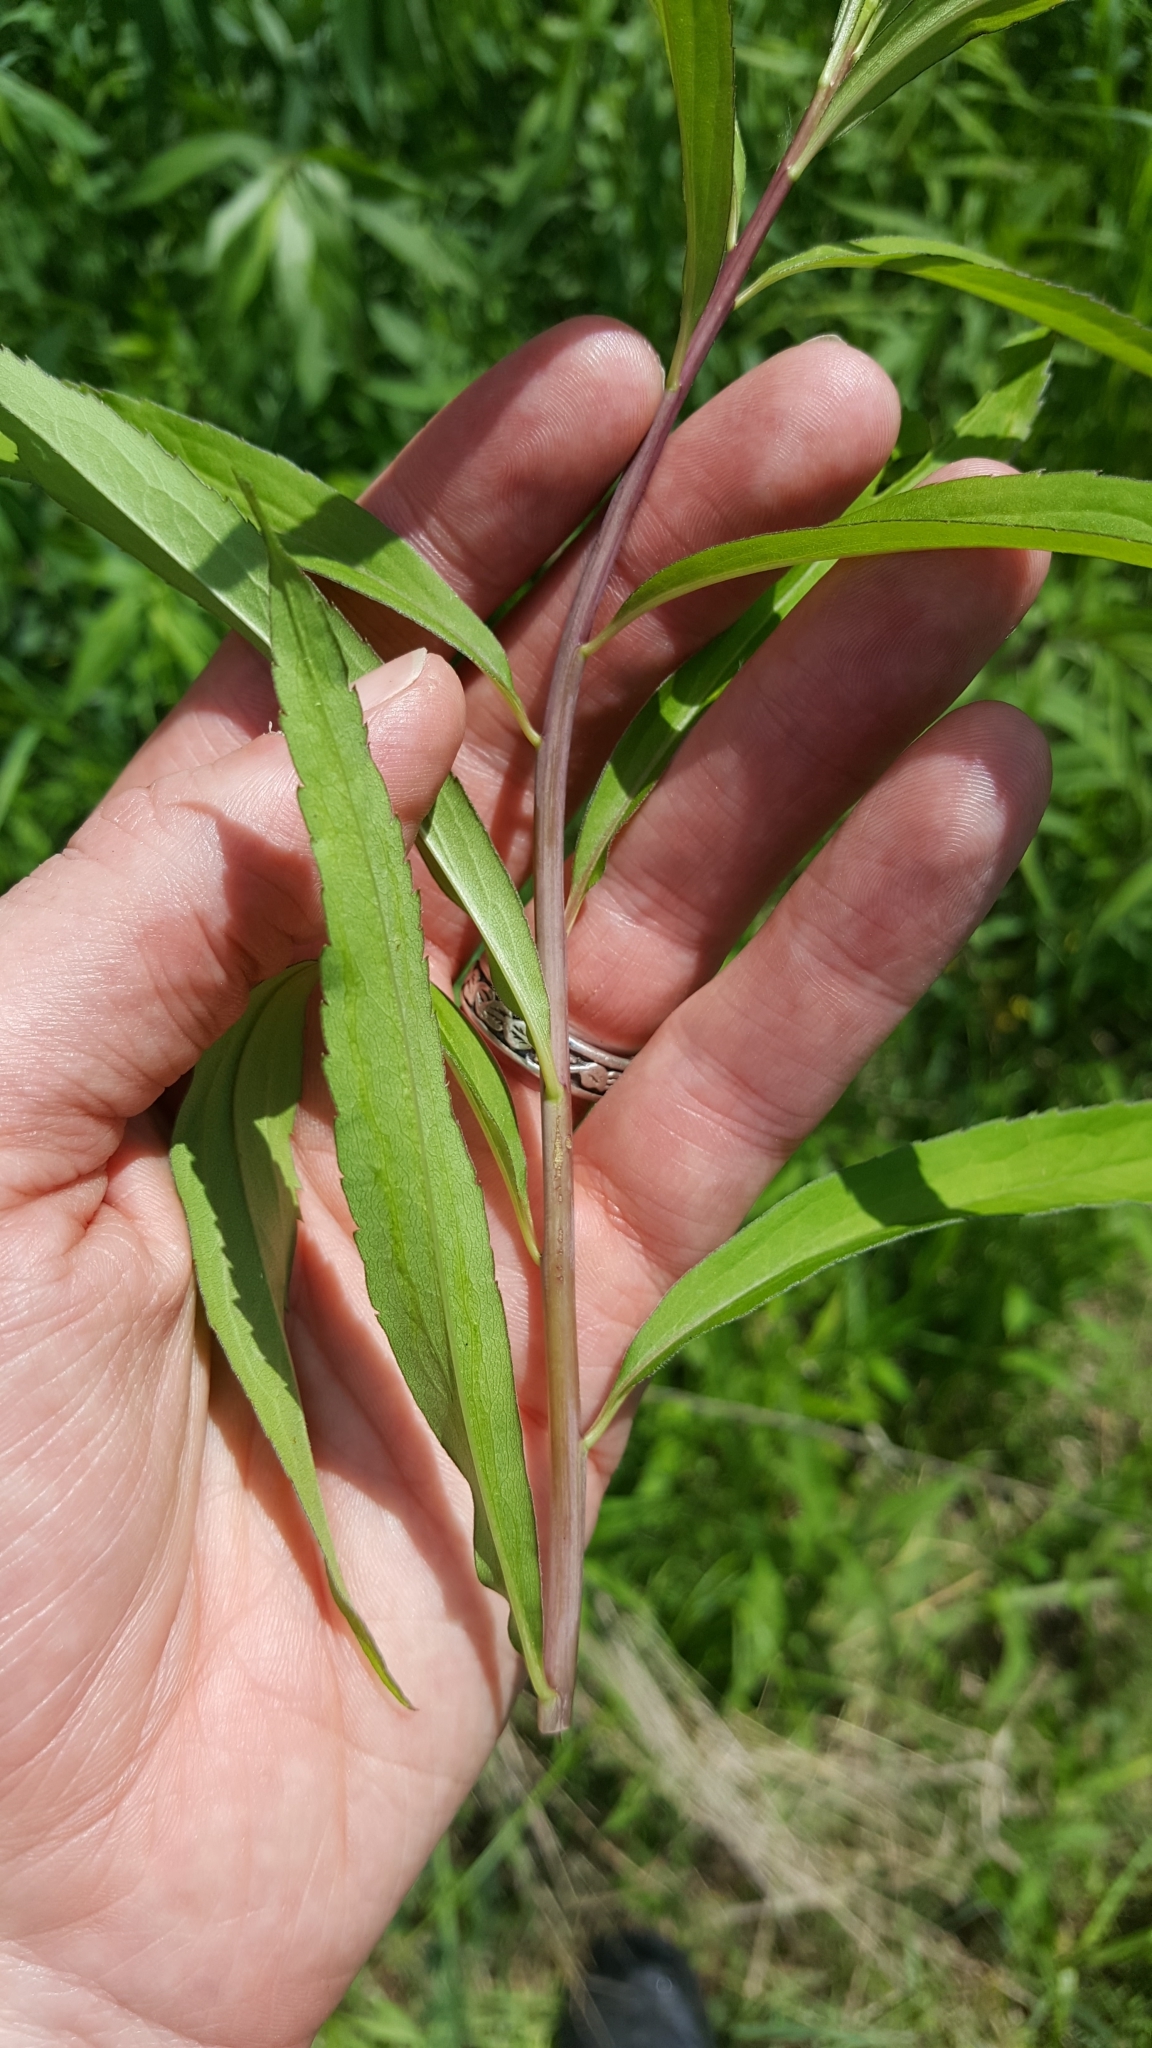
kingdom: Plantae
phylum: Tracheophyta
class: Magnoliopsida
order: Asterales
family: Asteraceae
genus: Solidago
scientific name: Solidago gigantea
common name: Giant goldenrod
